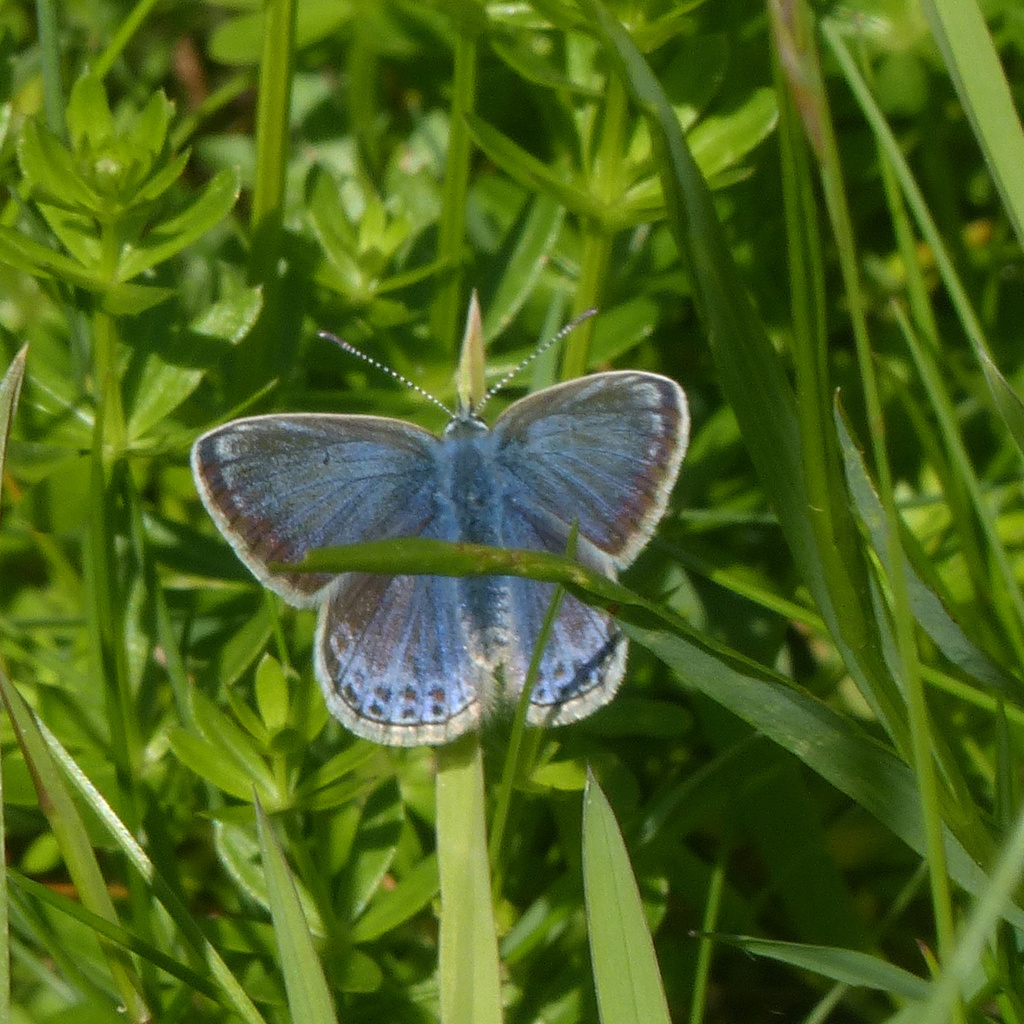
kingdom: Animalia
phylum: Arthropoda
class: Insecta
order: Lepidoptera
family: Lycaenidae
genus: Polyommatus
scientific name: Polyommatus icarus
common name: Common blue
